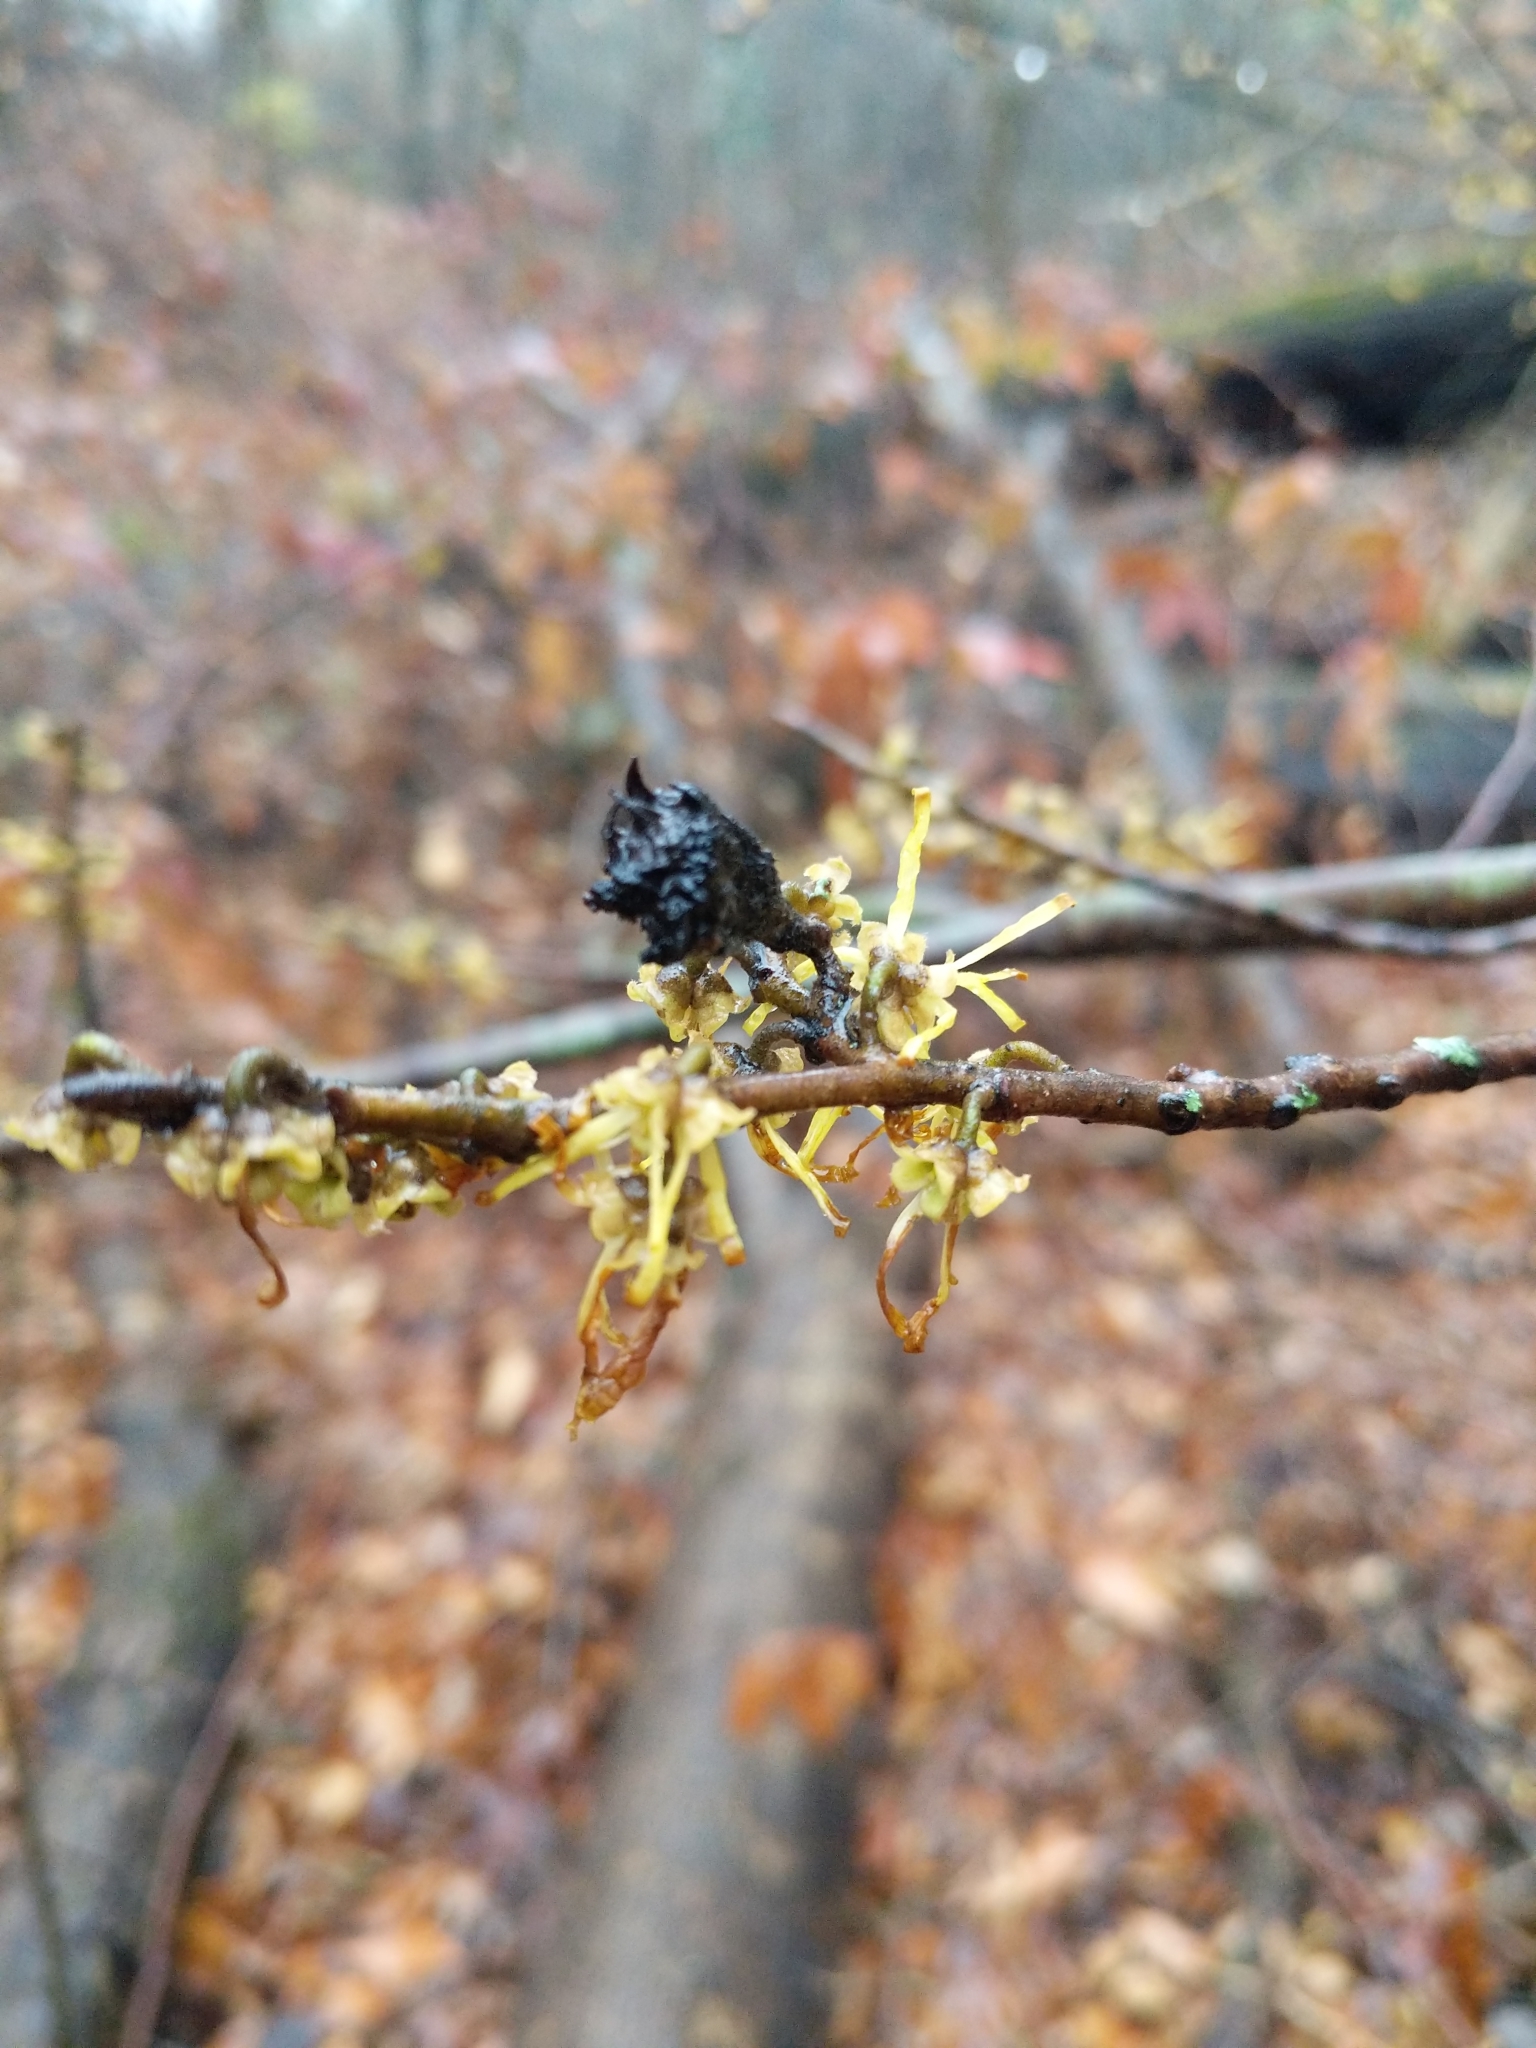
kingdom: Plantae
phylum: Tracheophyta
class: Magnoliopsida
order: Saxifragales
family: Hamamelidaceae
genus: Hamamelis
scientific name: Hamamelis virginiana
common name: Witch-hazel
